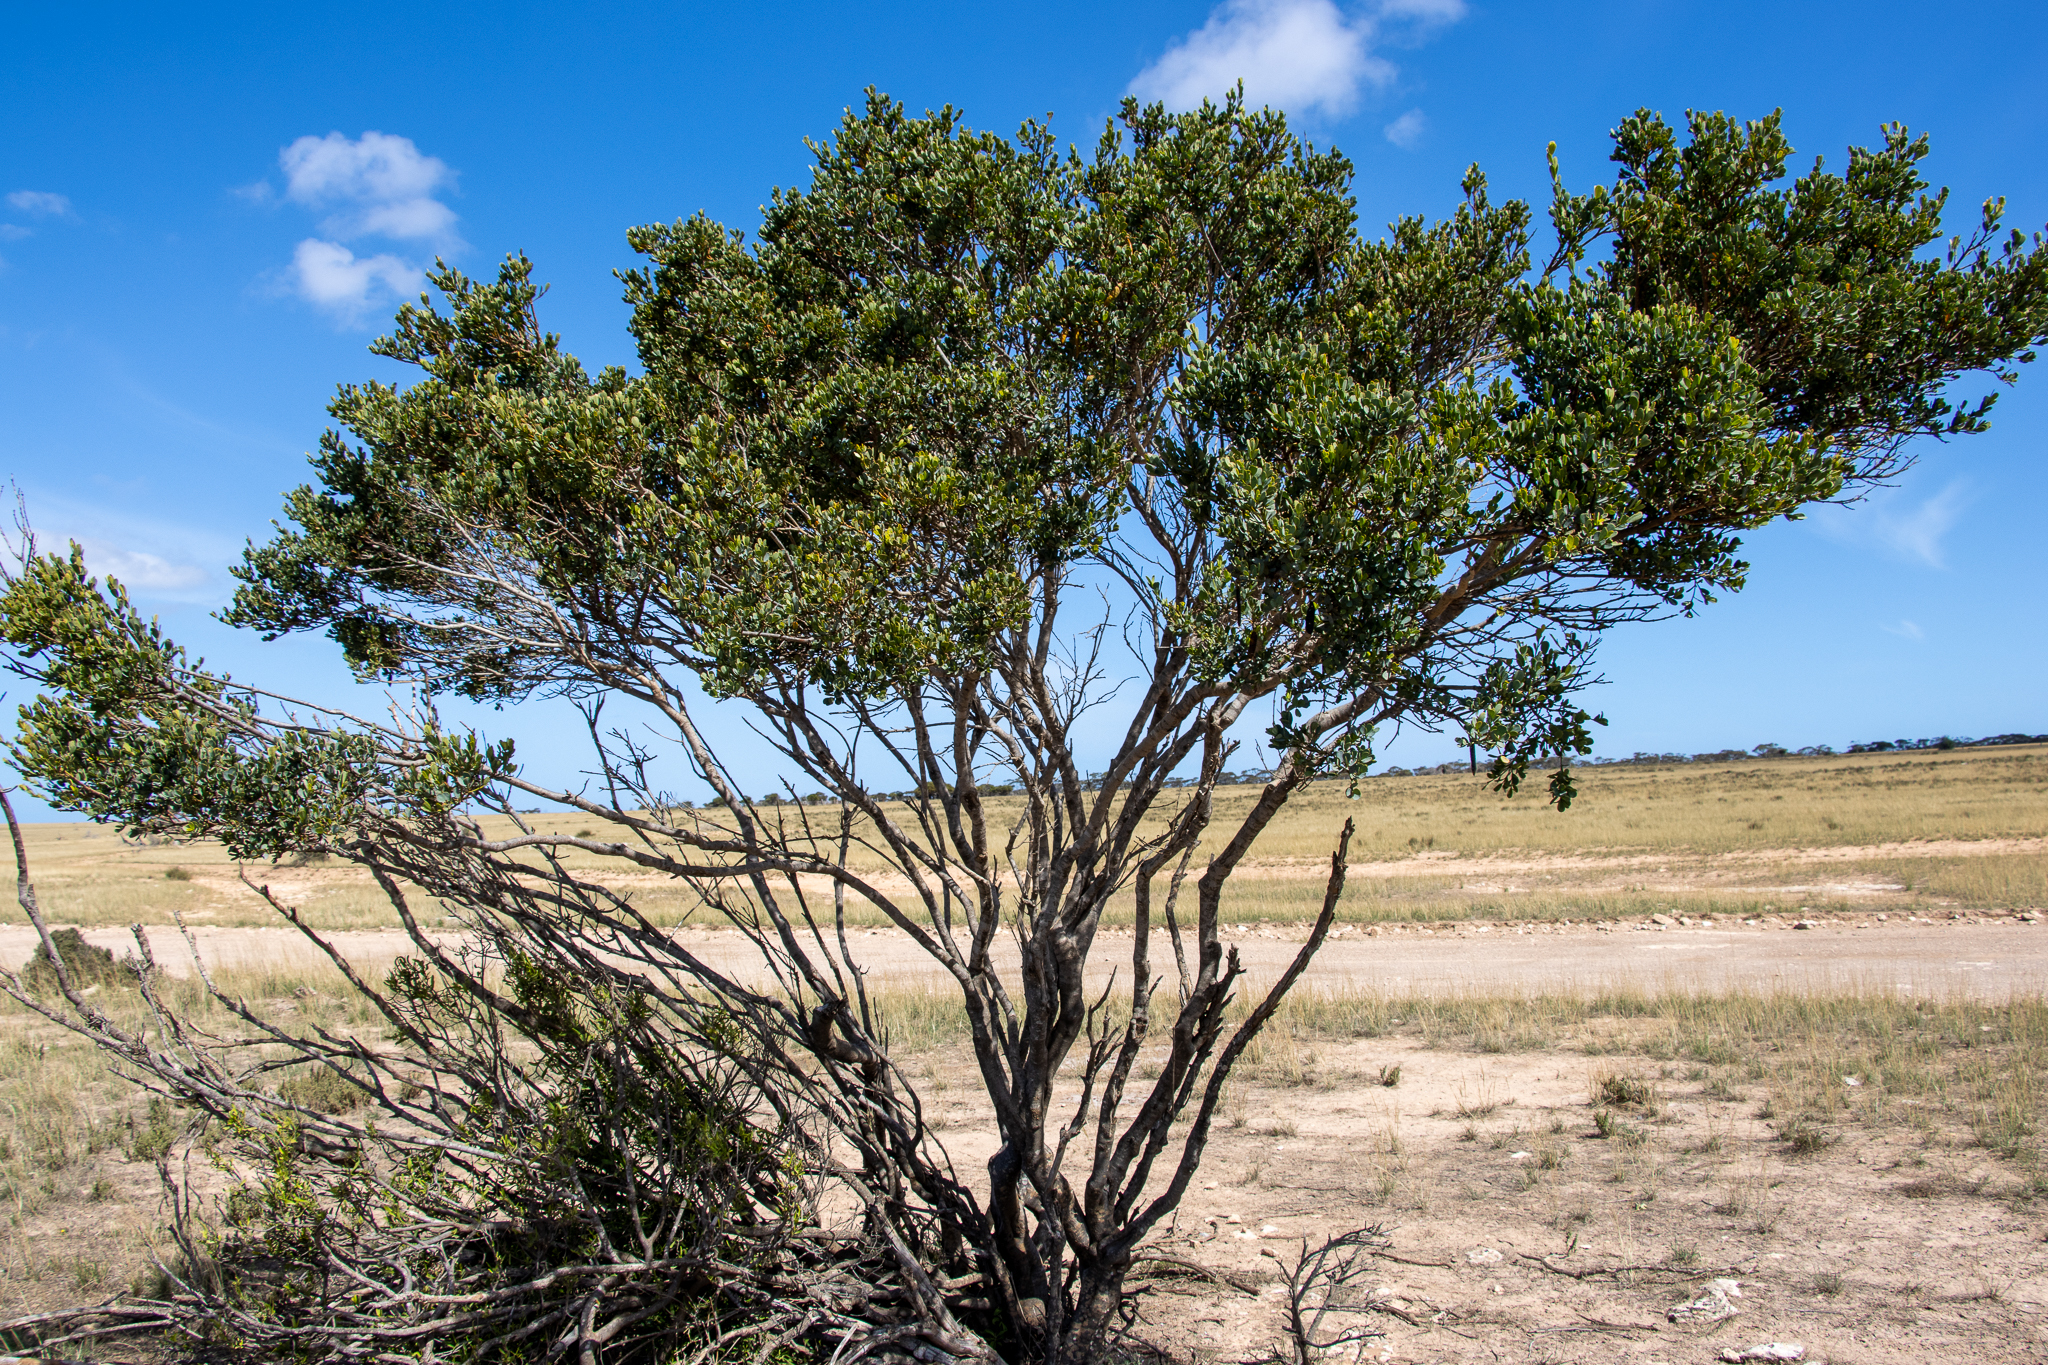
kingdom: Plantae
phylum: Tracheophyta
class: Magnoliopsida
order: Fabales
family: Fabaceae
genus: Templetonia
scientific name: Templetonia retusa
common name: Cockies'-tongue
